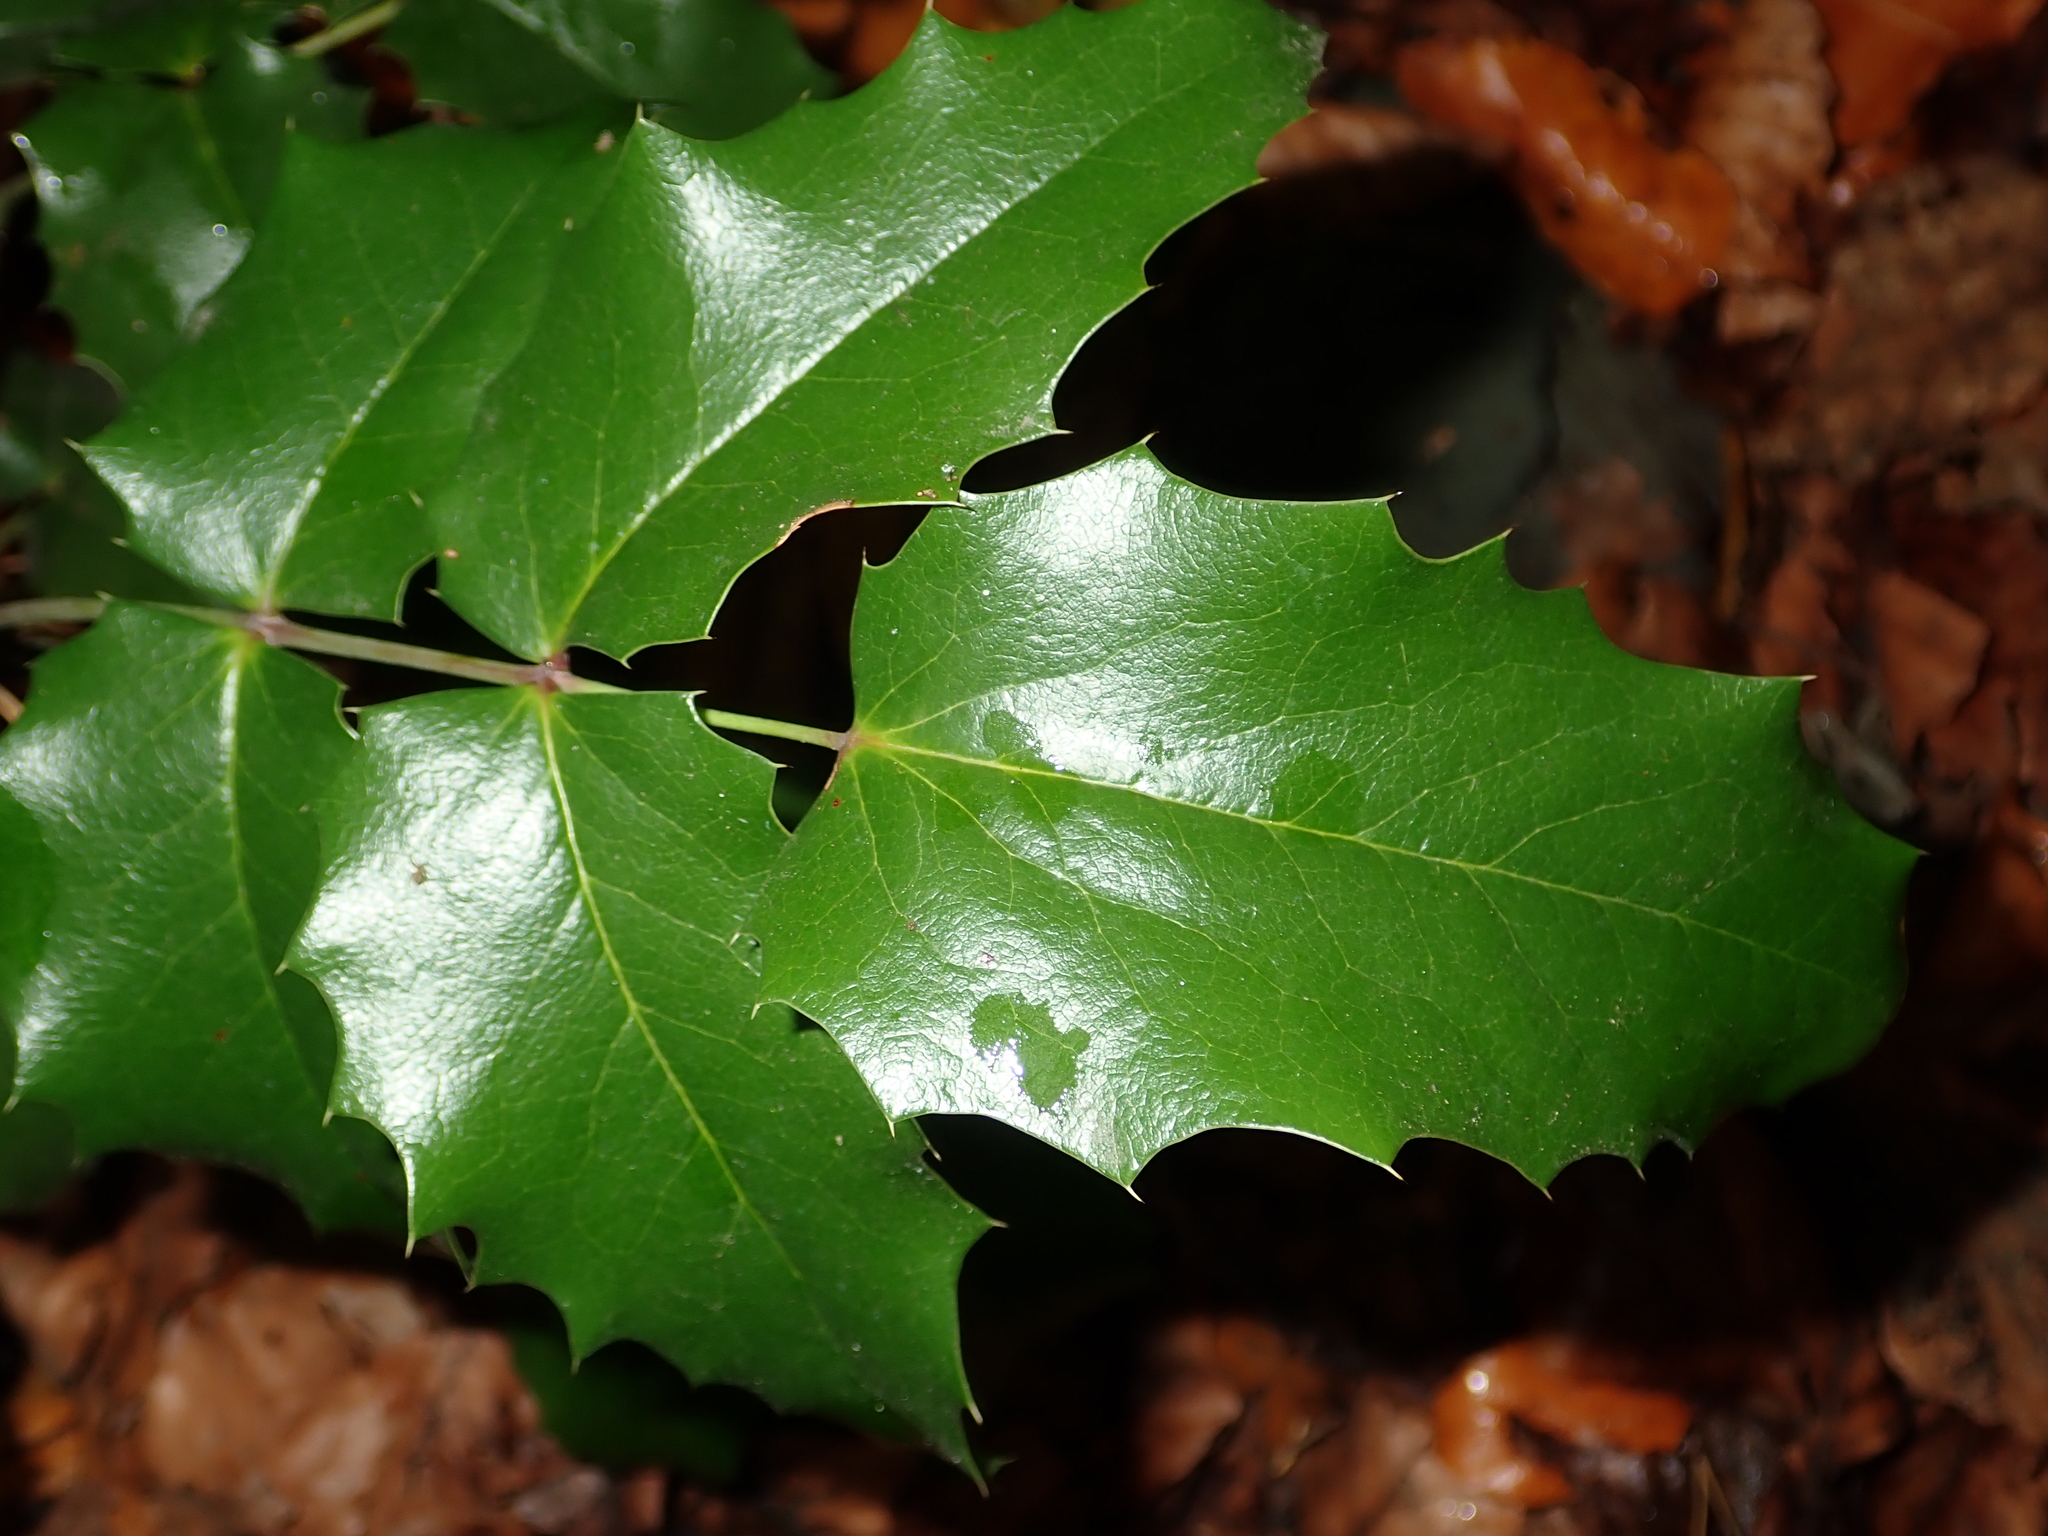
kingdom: Plantae
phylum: Tracheophyta
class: Magnoliopsida
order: Ranunculales
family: Berberidaceae
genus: Mahonia
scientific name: Mahonia aquifolium
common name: Oregon-grape
